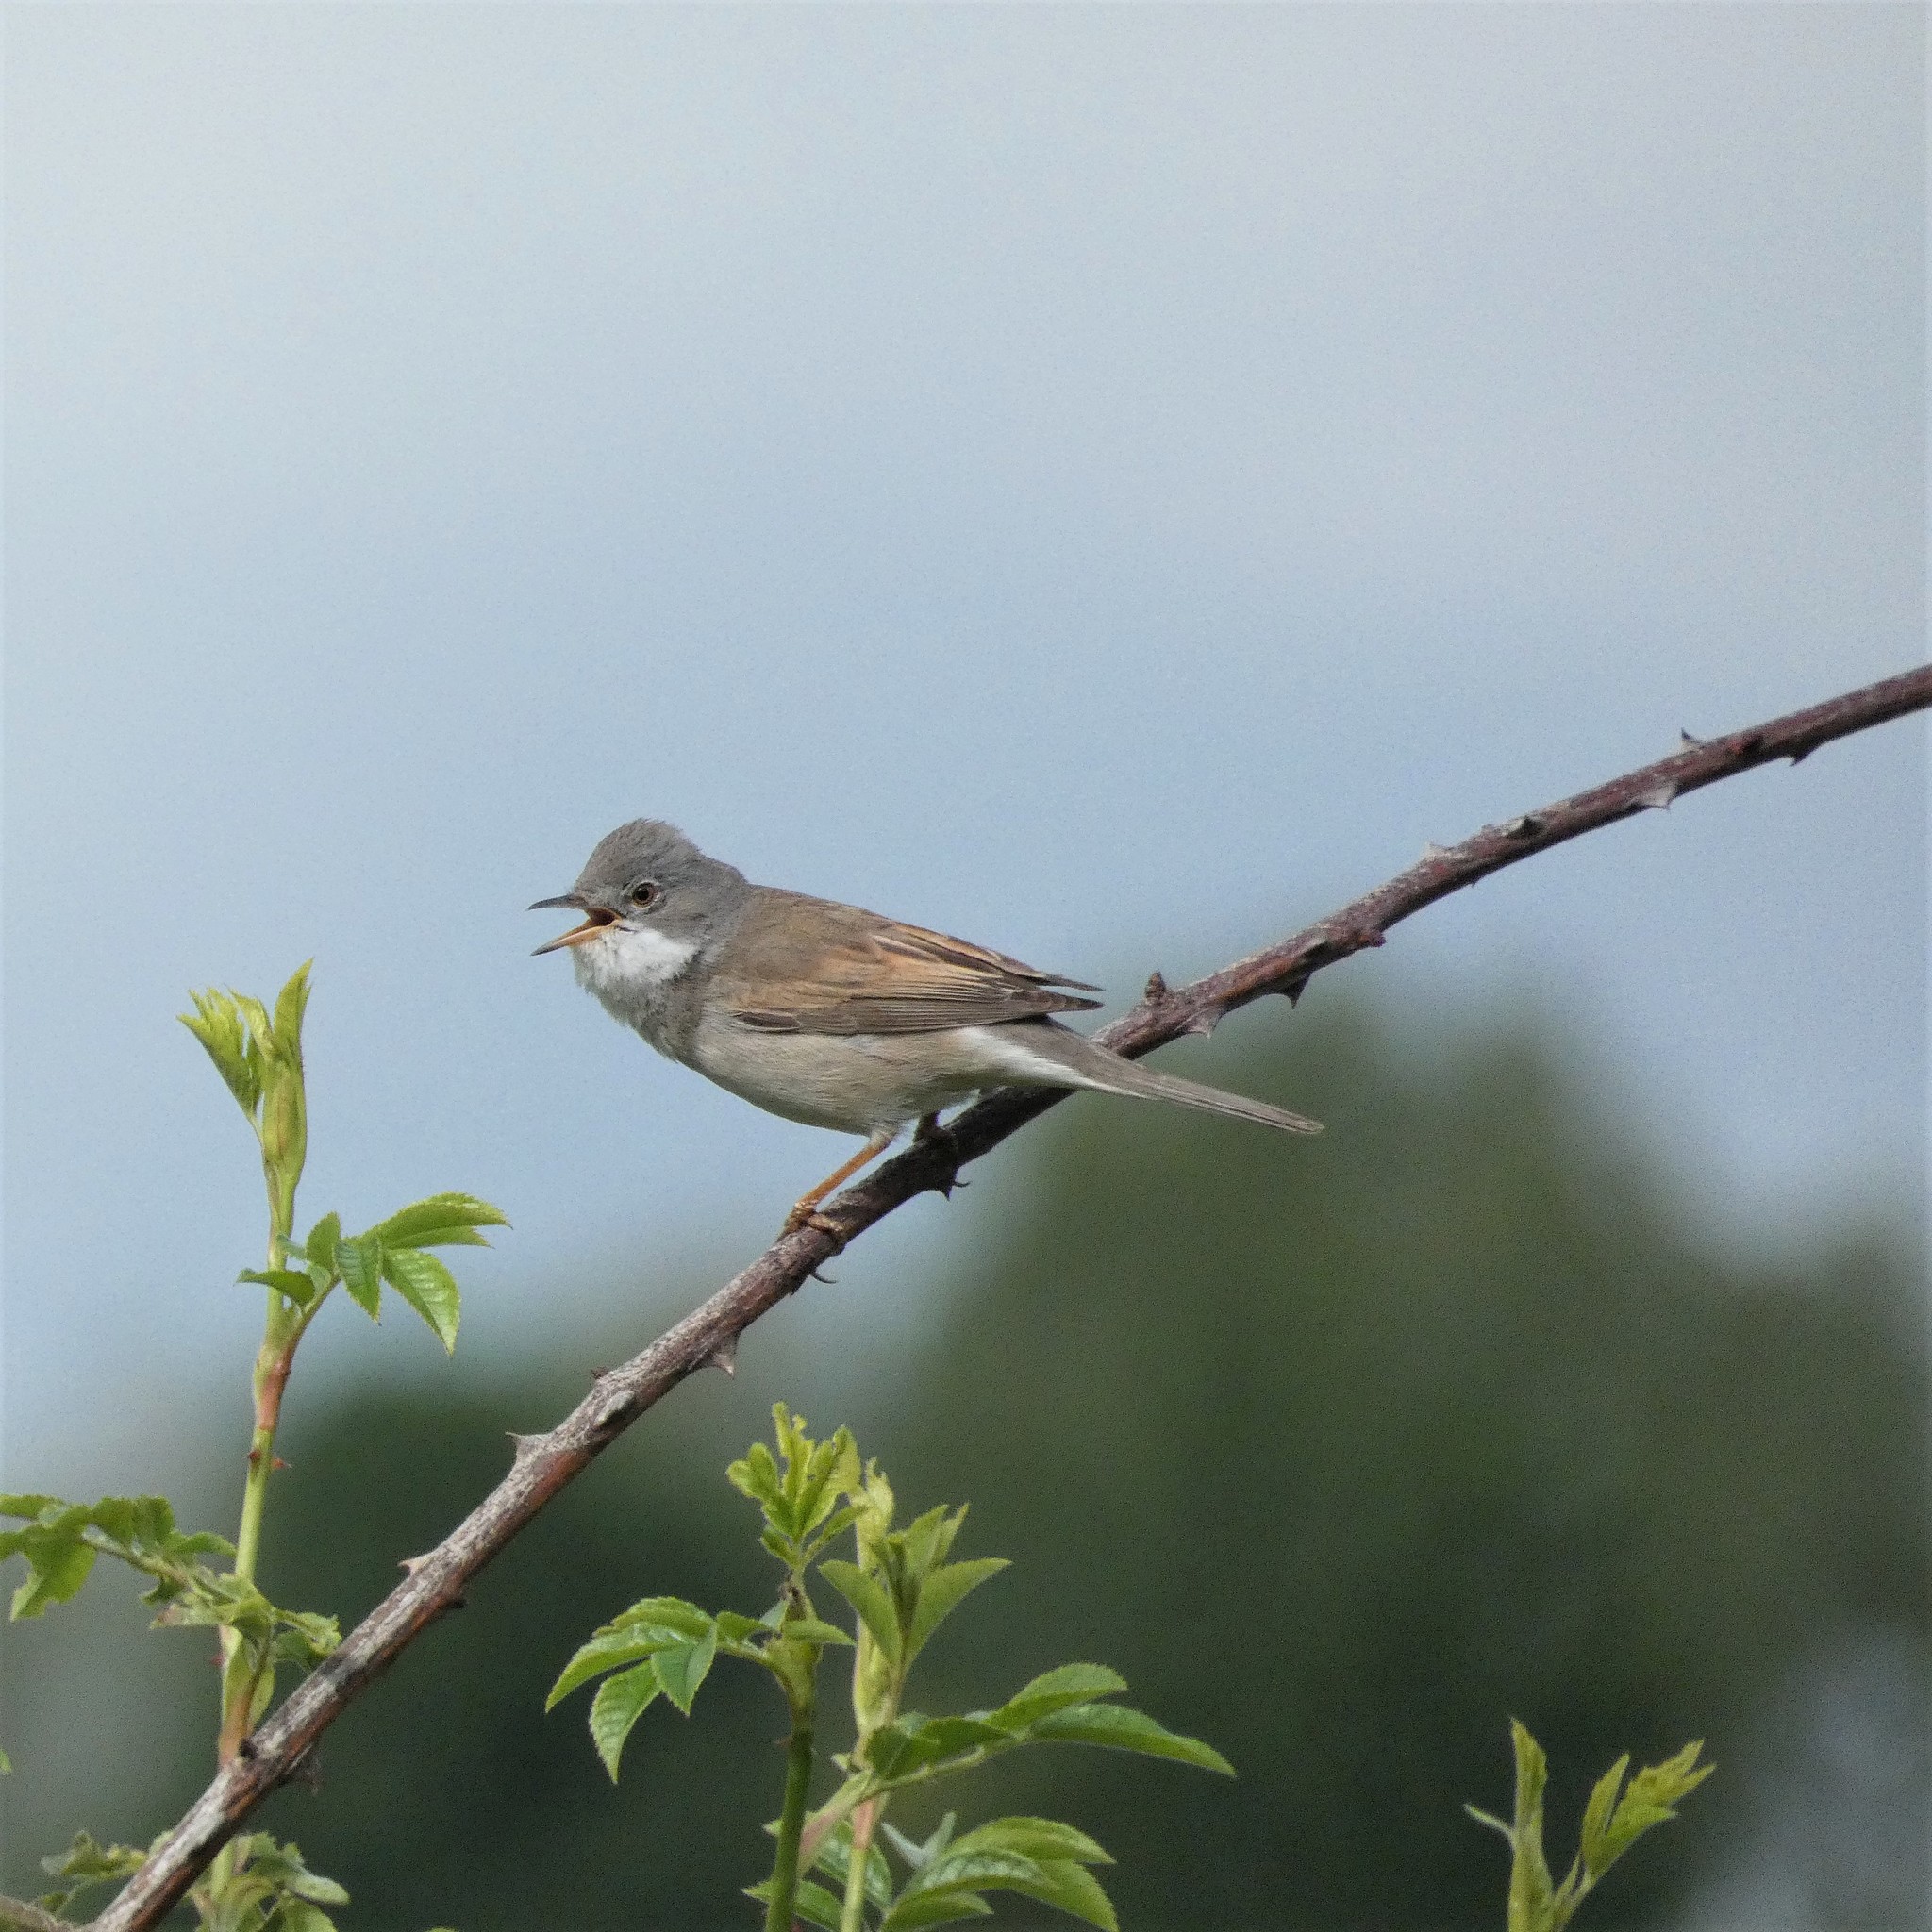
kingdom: Animalia
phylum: Chordata
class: Aves
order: Passeriformes
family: Sylviidae
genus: Sylvia
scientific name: Sylvia communis
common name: Common whitethroat
